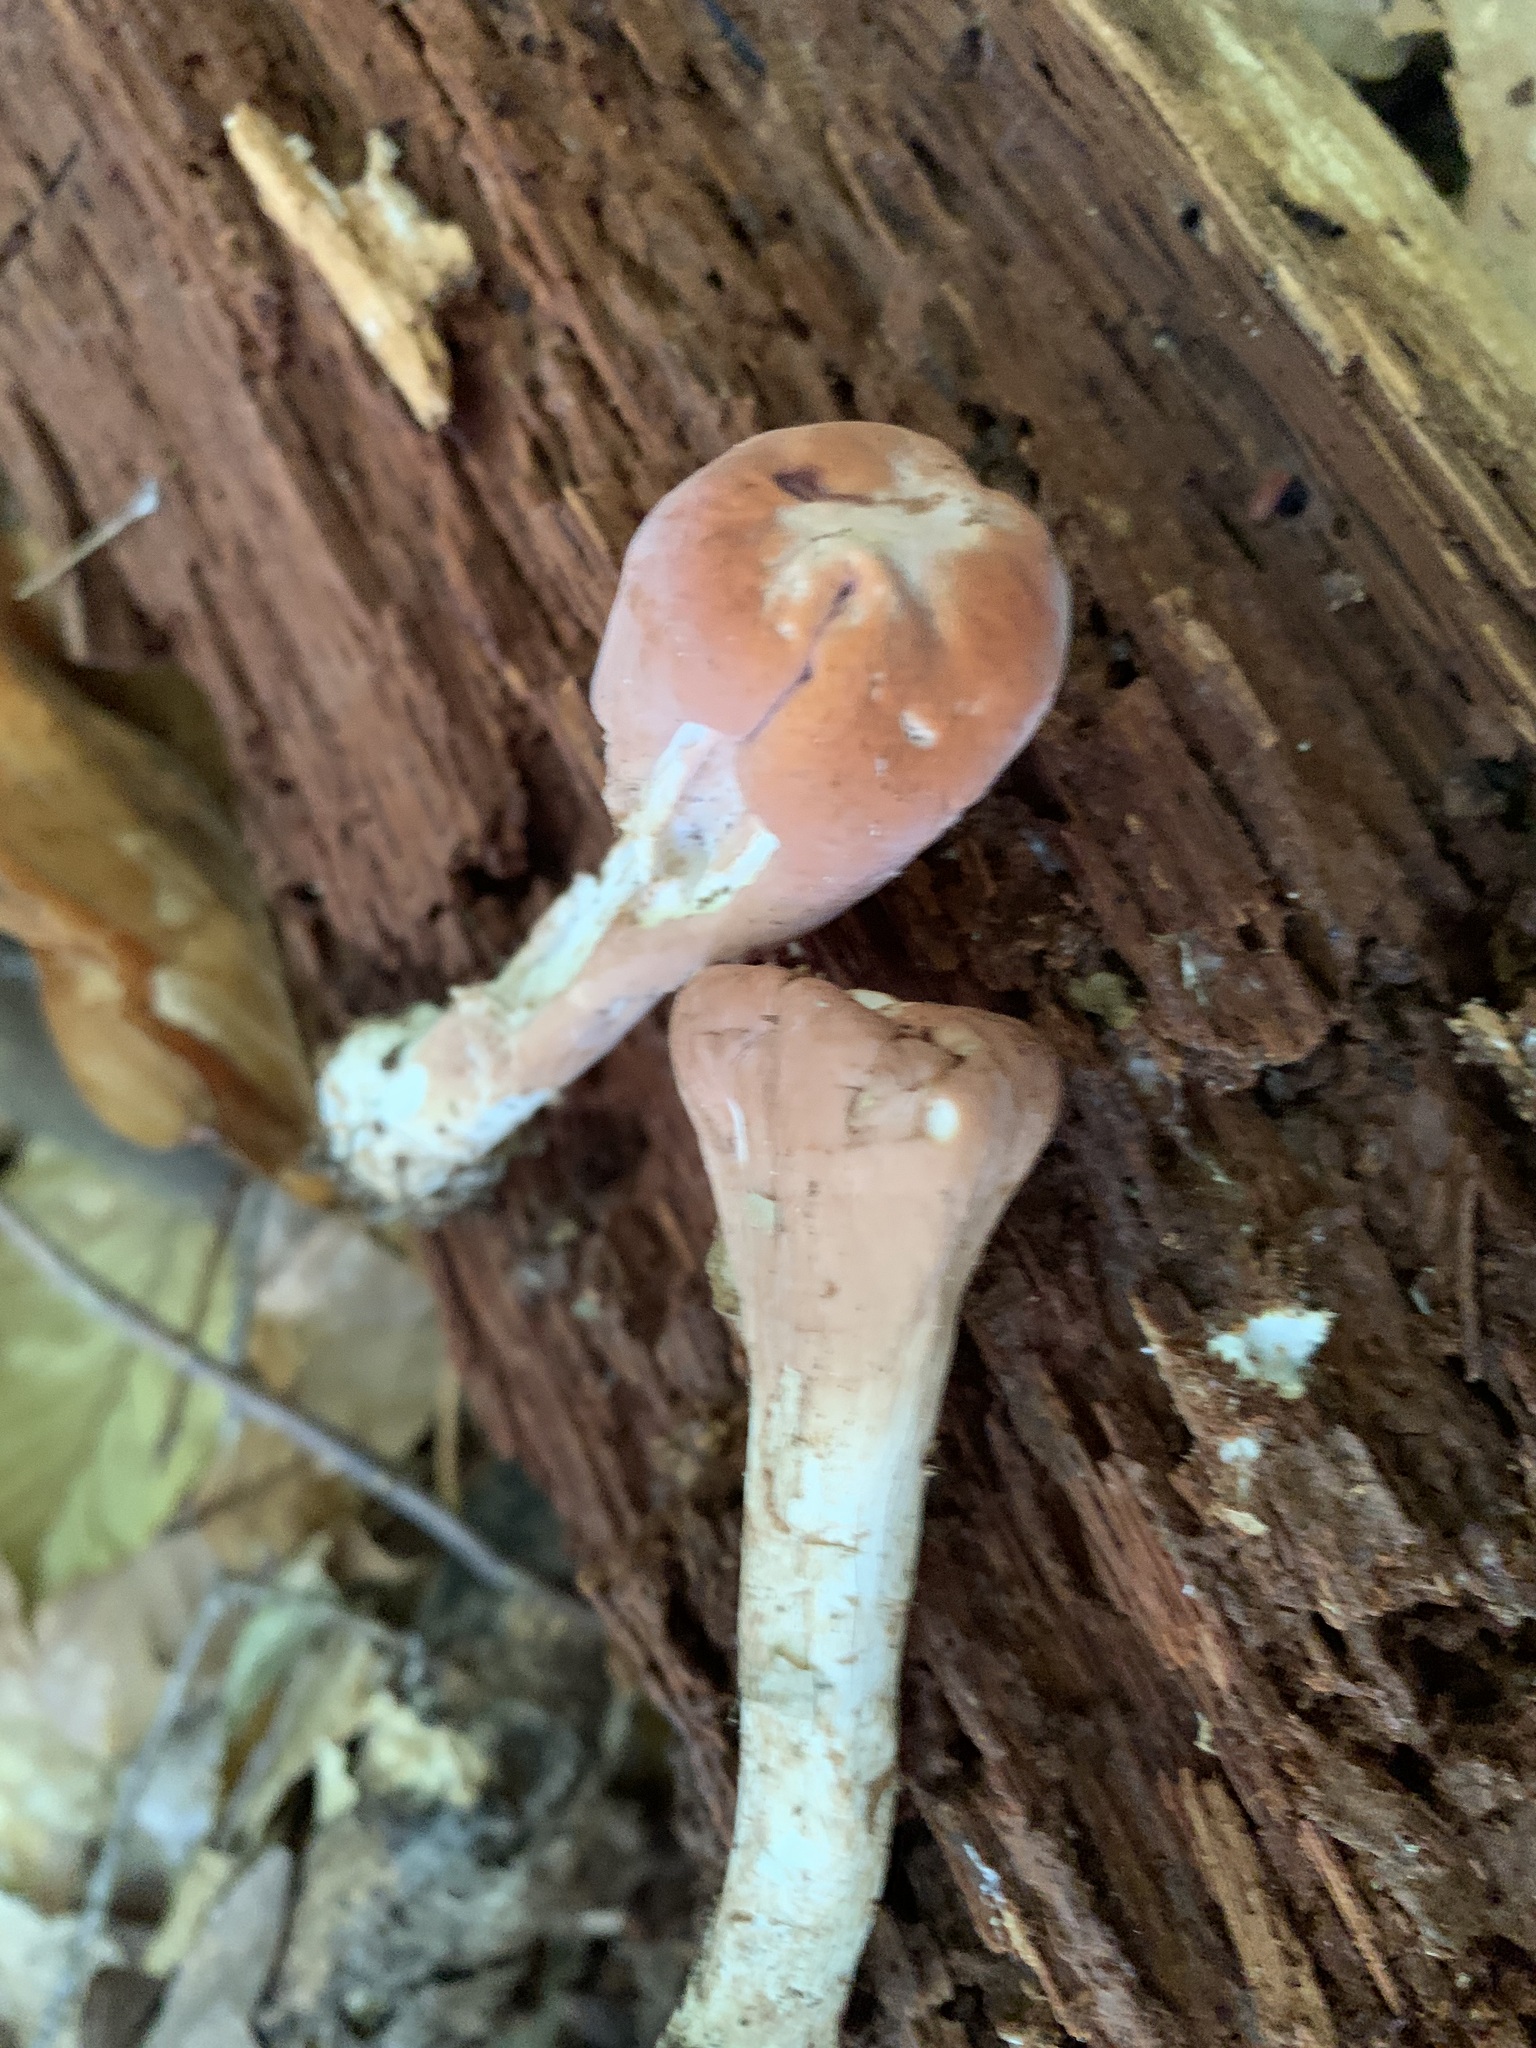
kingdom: Fungi
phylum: Basidiomycota
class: Agaricomycetes
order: Gomphales
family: Clavariadelphaceae
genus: Clavariadelphus
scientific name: Clavariadelphus truncatus
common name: Truncated club
